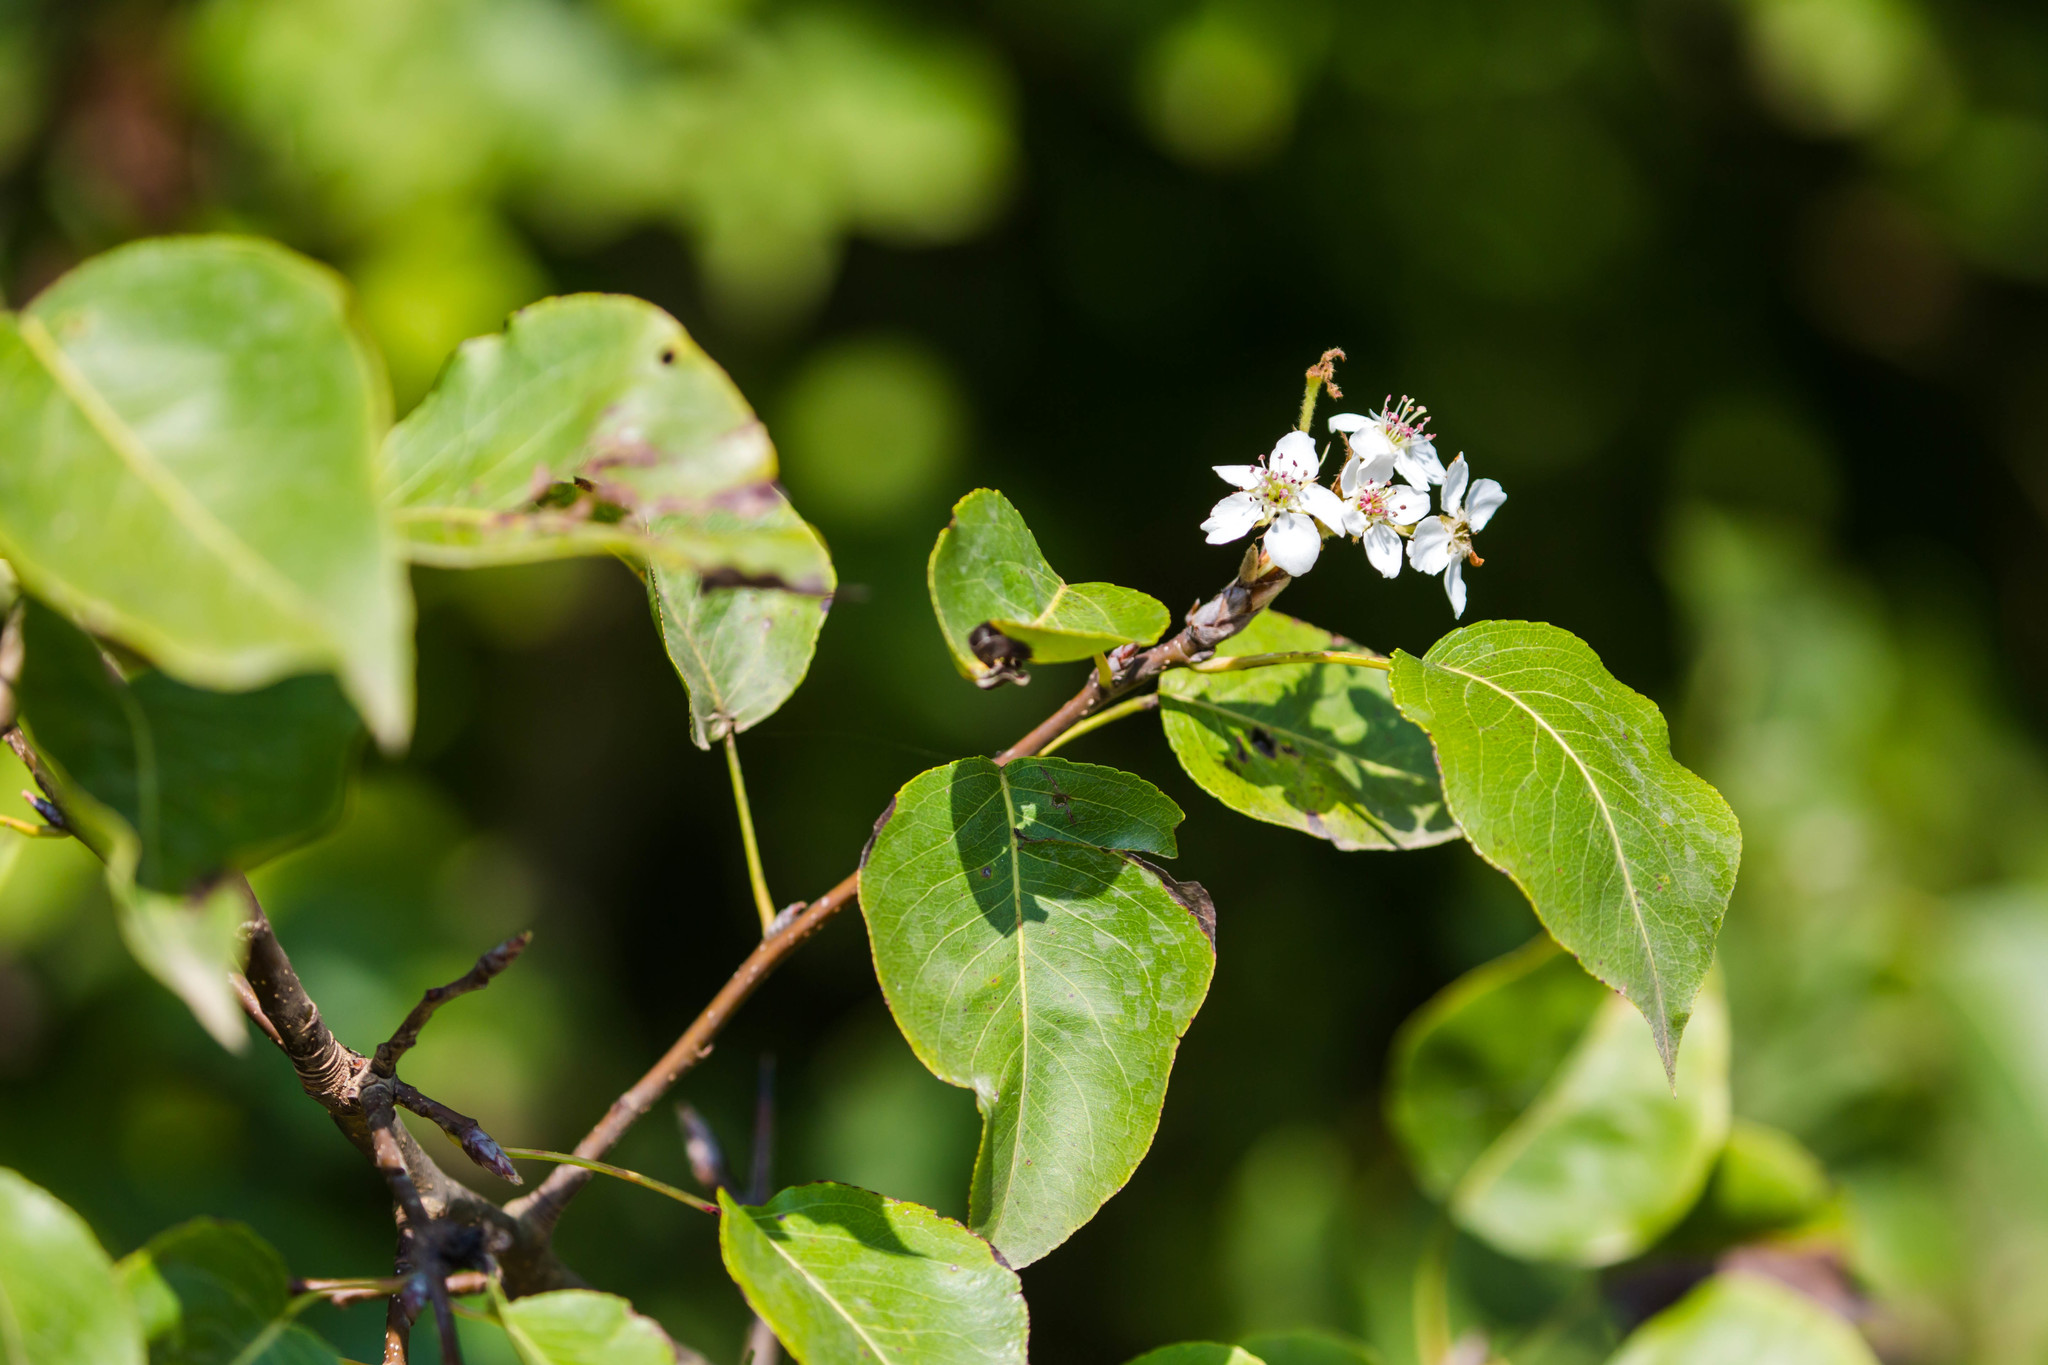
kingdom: Plantae
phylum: Tracheophyta
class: Magnoliopsida
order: Rosales
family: Rosaceae
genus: Pyrus
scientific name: Pyrus calleryana
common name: Callery pear
